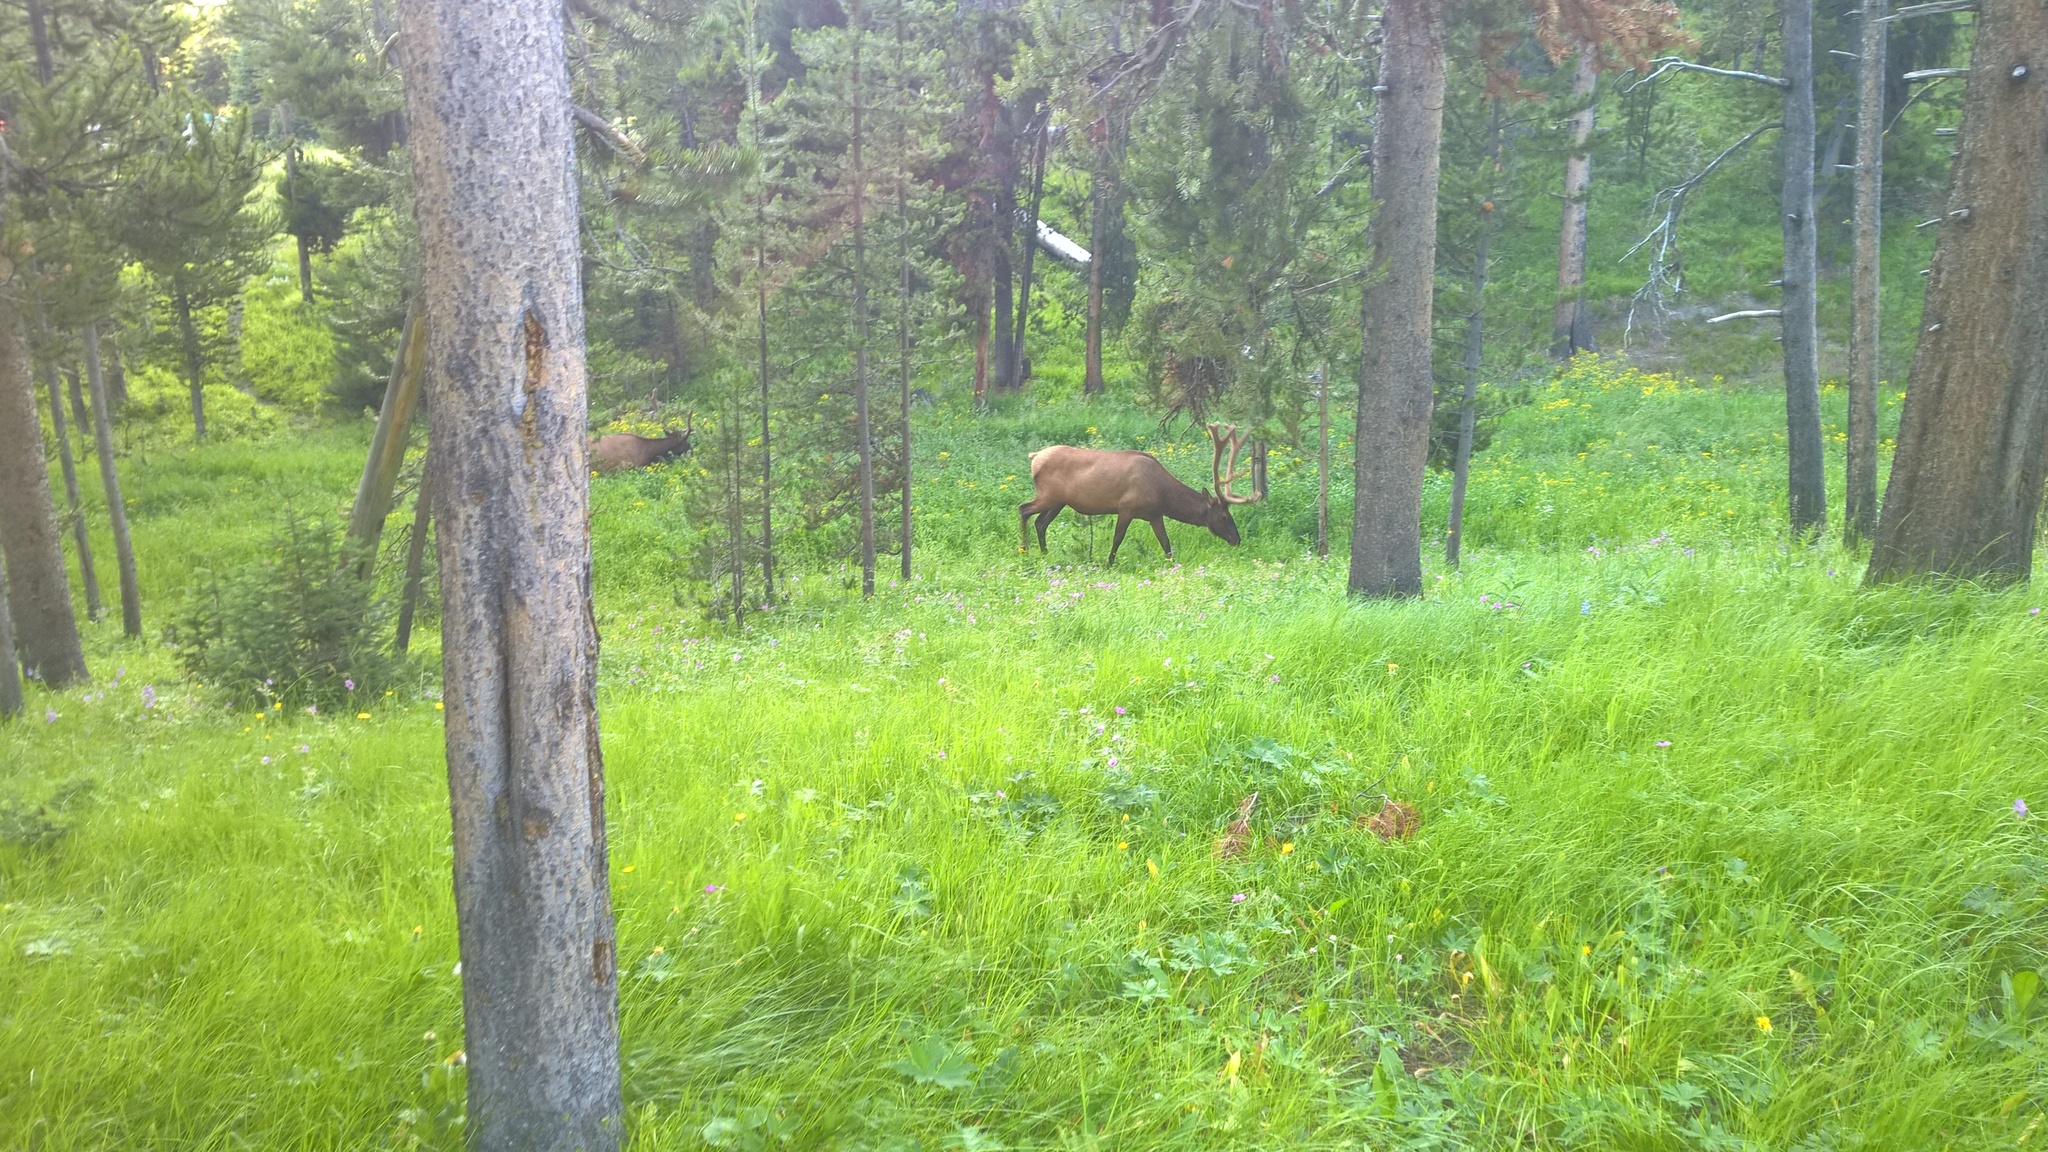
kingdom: Animalia
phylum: Chordata
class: Mammalia
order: Artiodactyla
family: Cervidae
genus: Cervus
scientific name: Cervus elaphus
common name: Red deer
